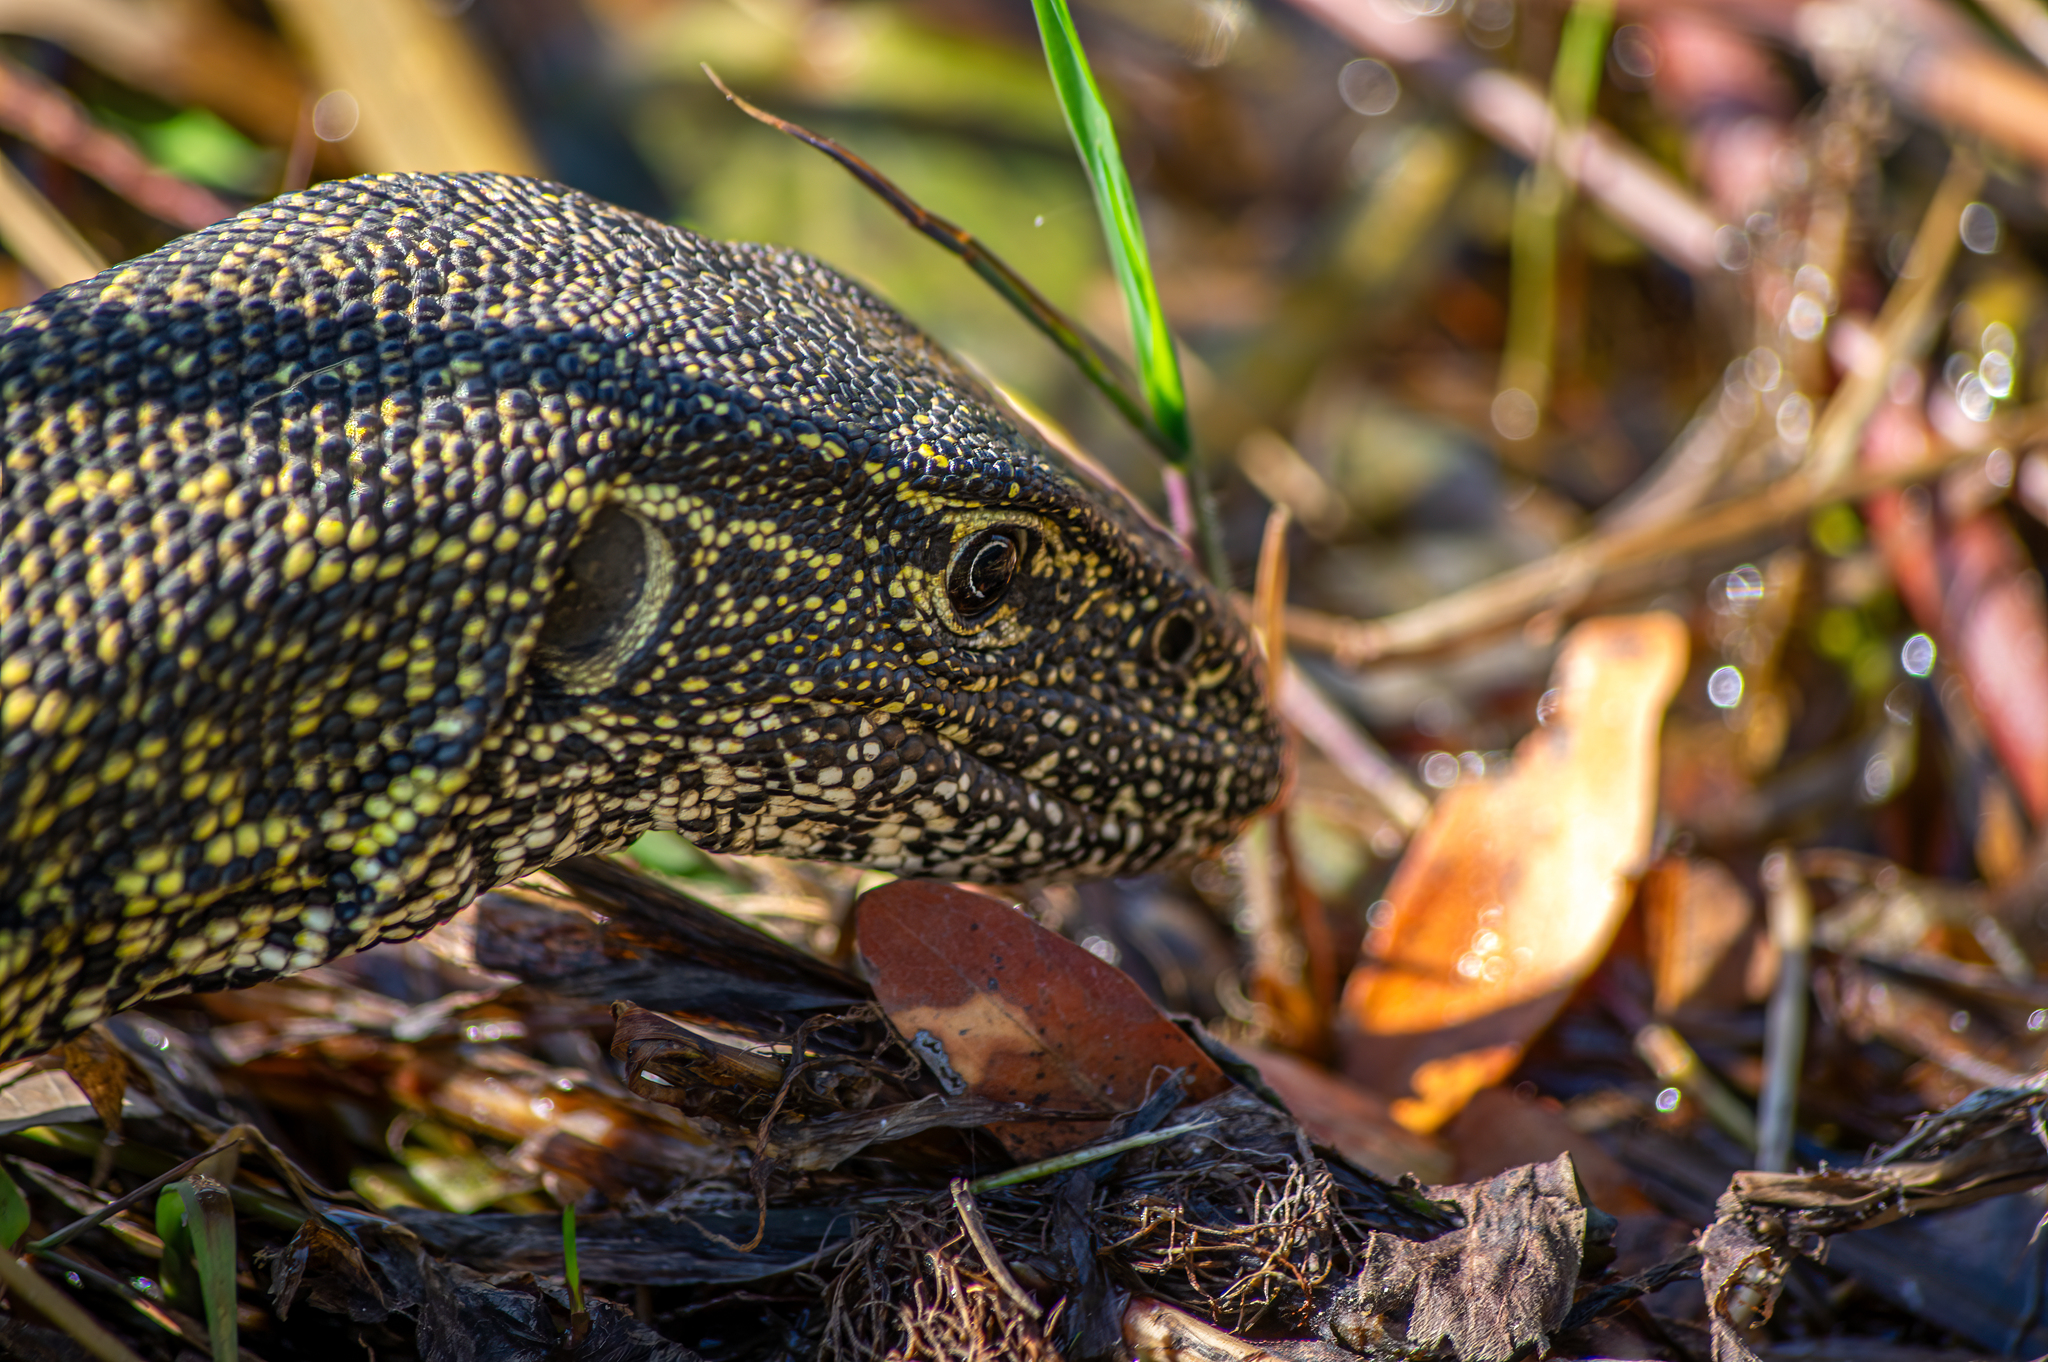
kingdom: Animalia
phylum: Chordata
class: Squamata
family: Varanidae
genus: Varanus
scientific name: Varanus niloticus
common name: Nile monitor
